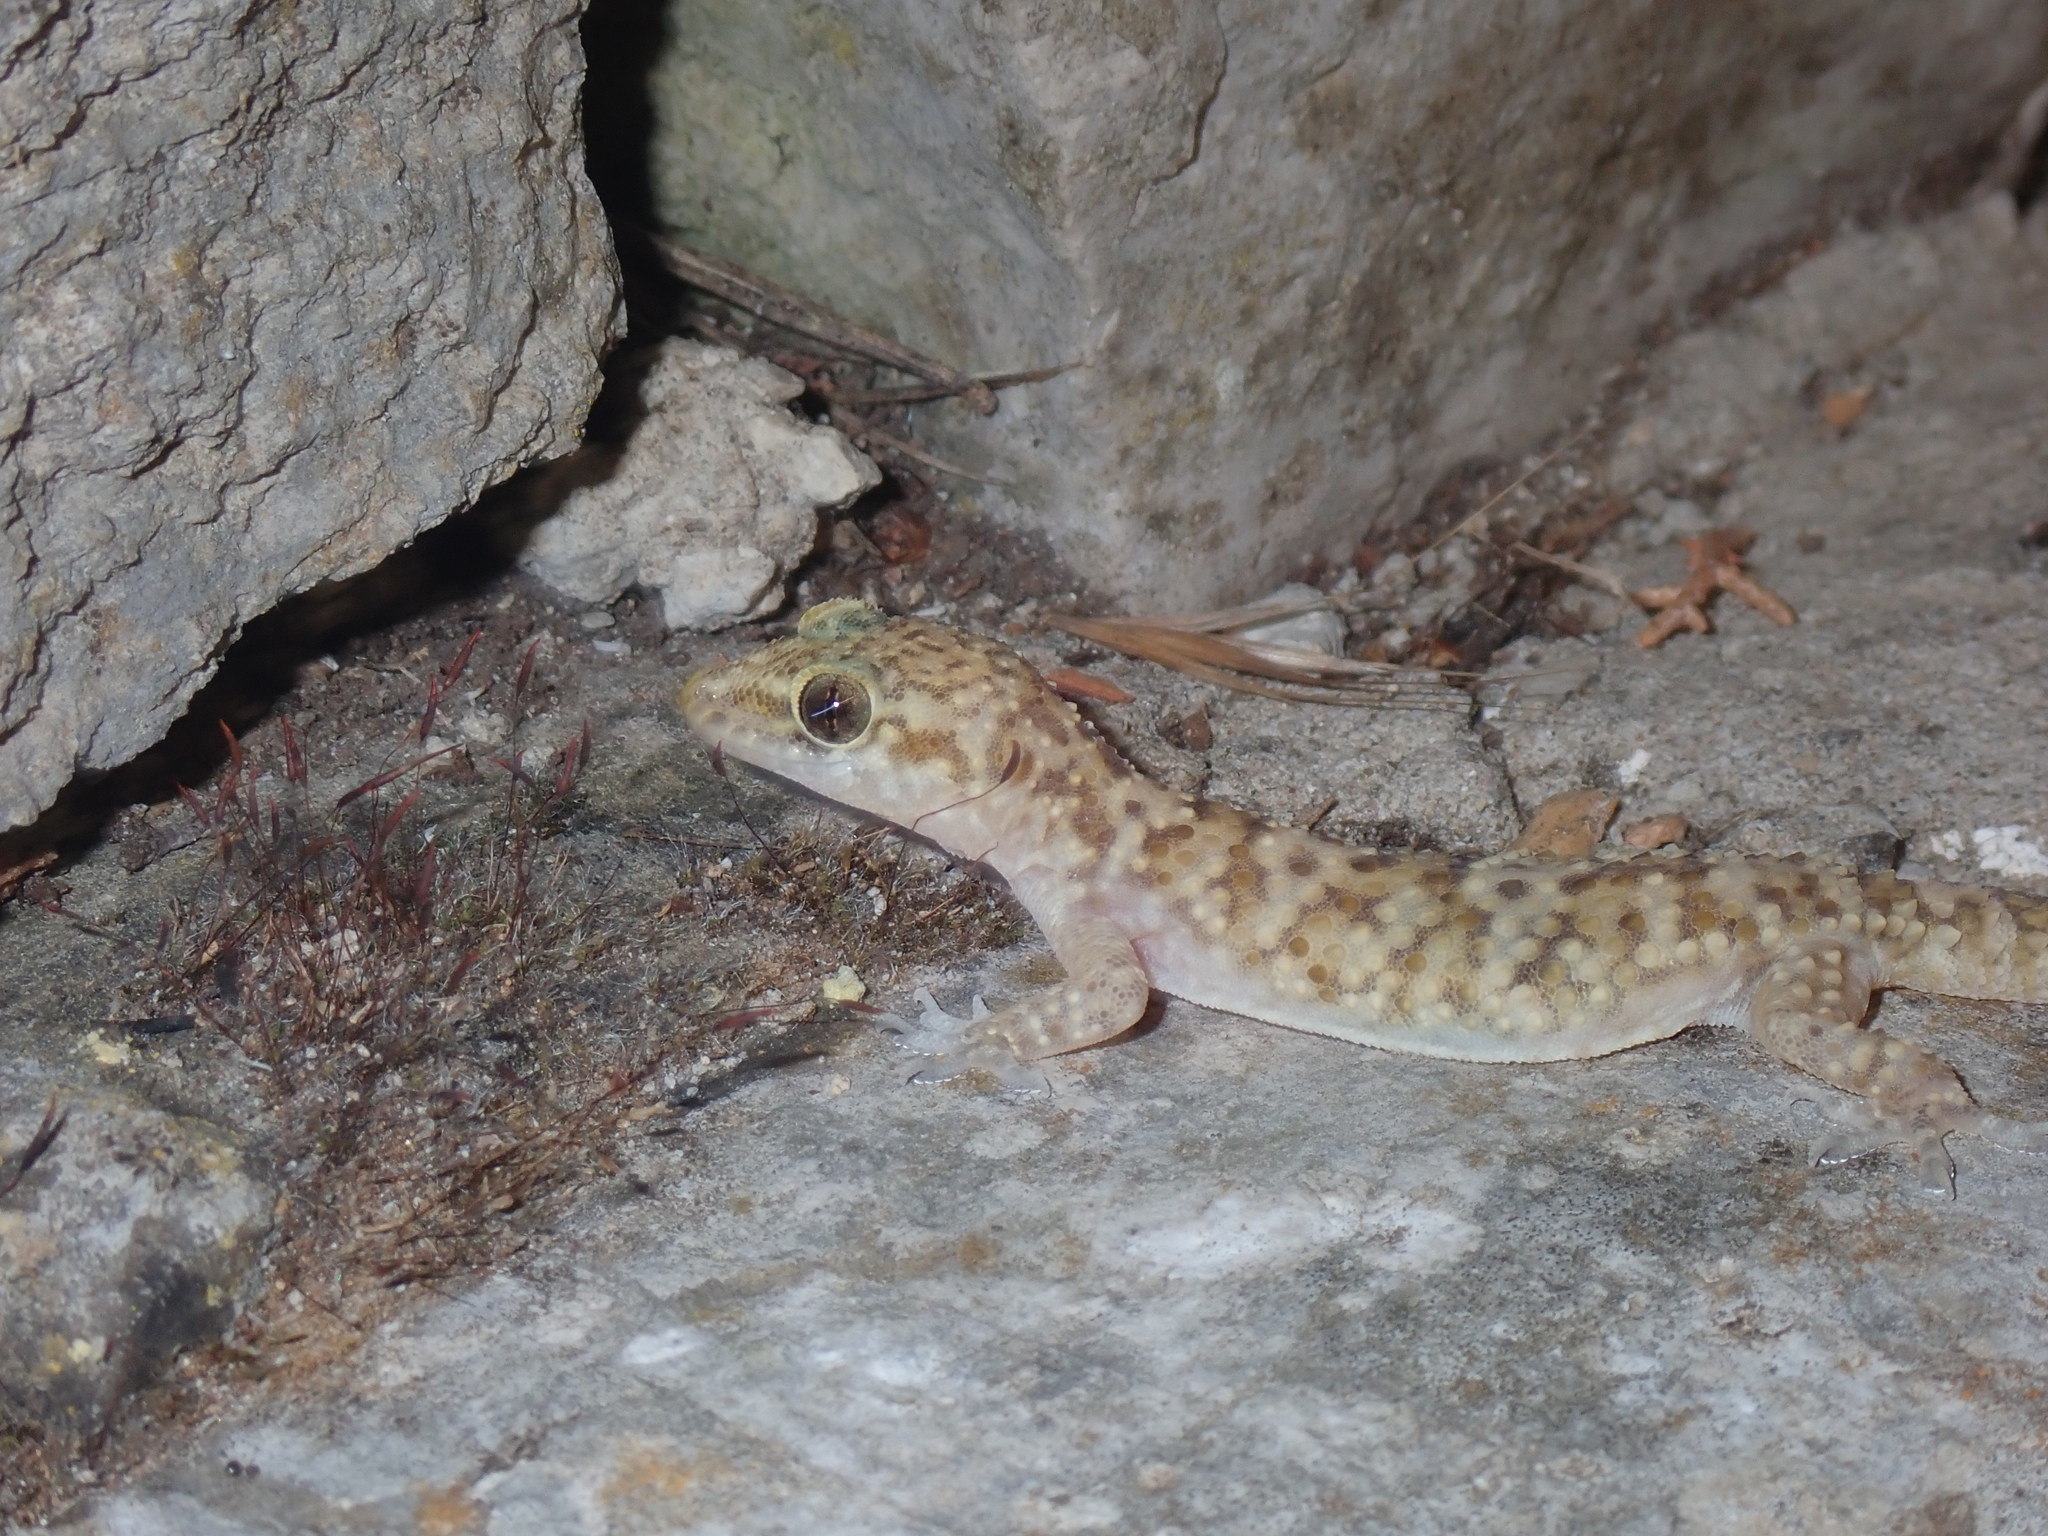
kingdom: Animalia
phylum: Chordata
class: Squamata
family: Gekkonidae
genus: Hemidactylus
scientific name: Hemidactylus turcicus
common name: Turkish gecko
